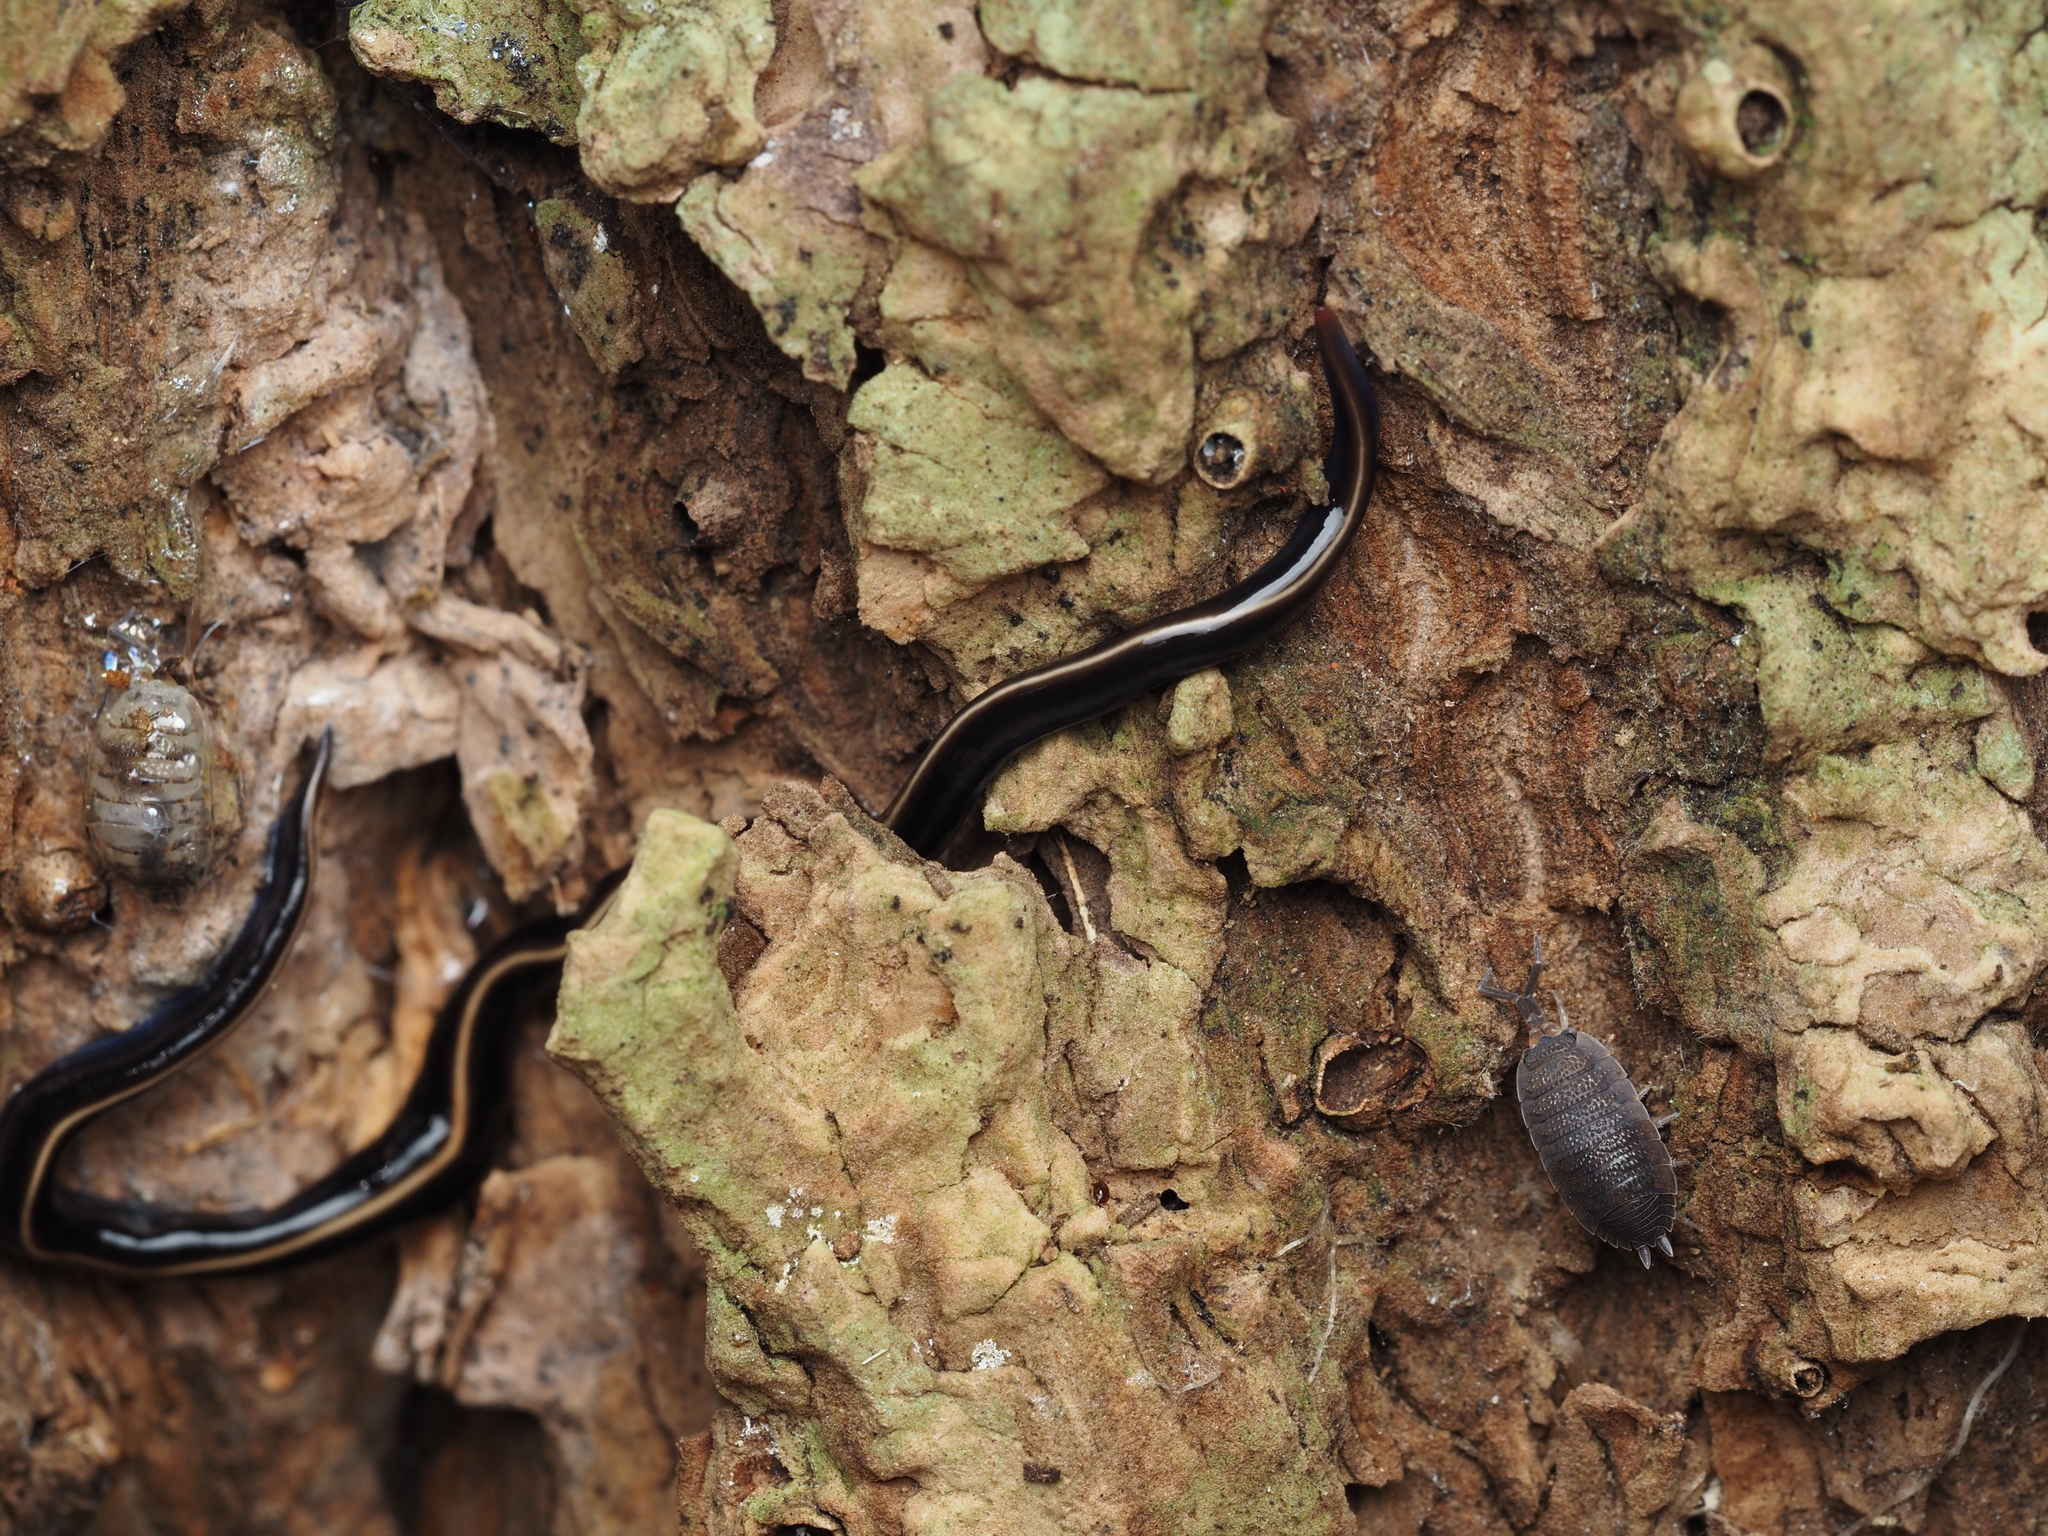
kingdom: Animalia
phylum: Platyhelminthes
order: Tricladida
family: Geoplanidae
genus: Caenoplana
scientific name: Caenoplana coerulea
